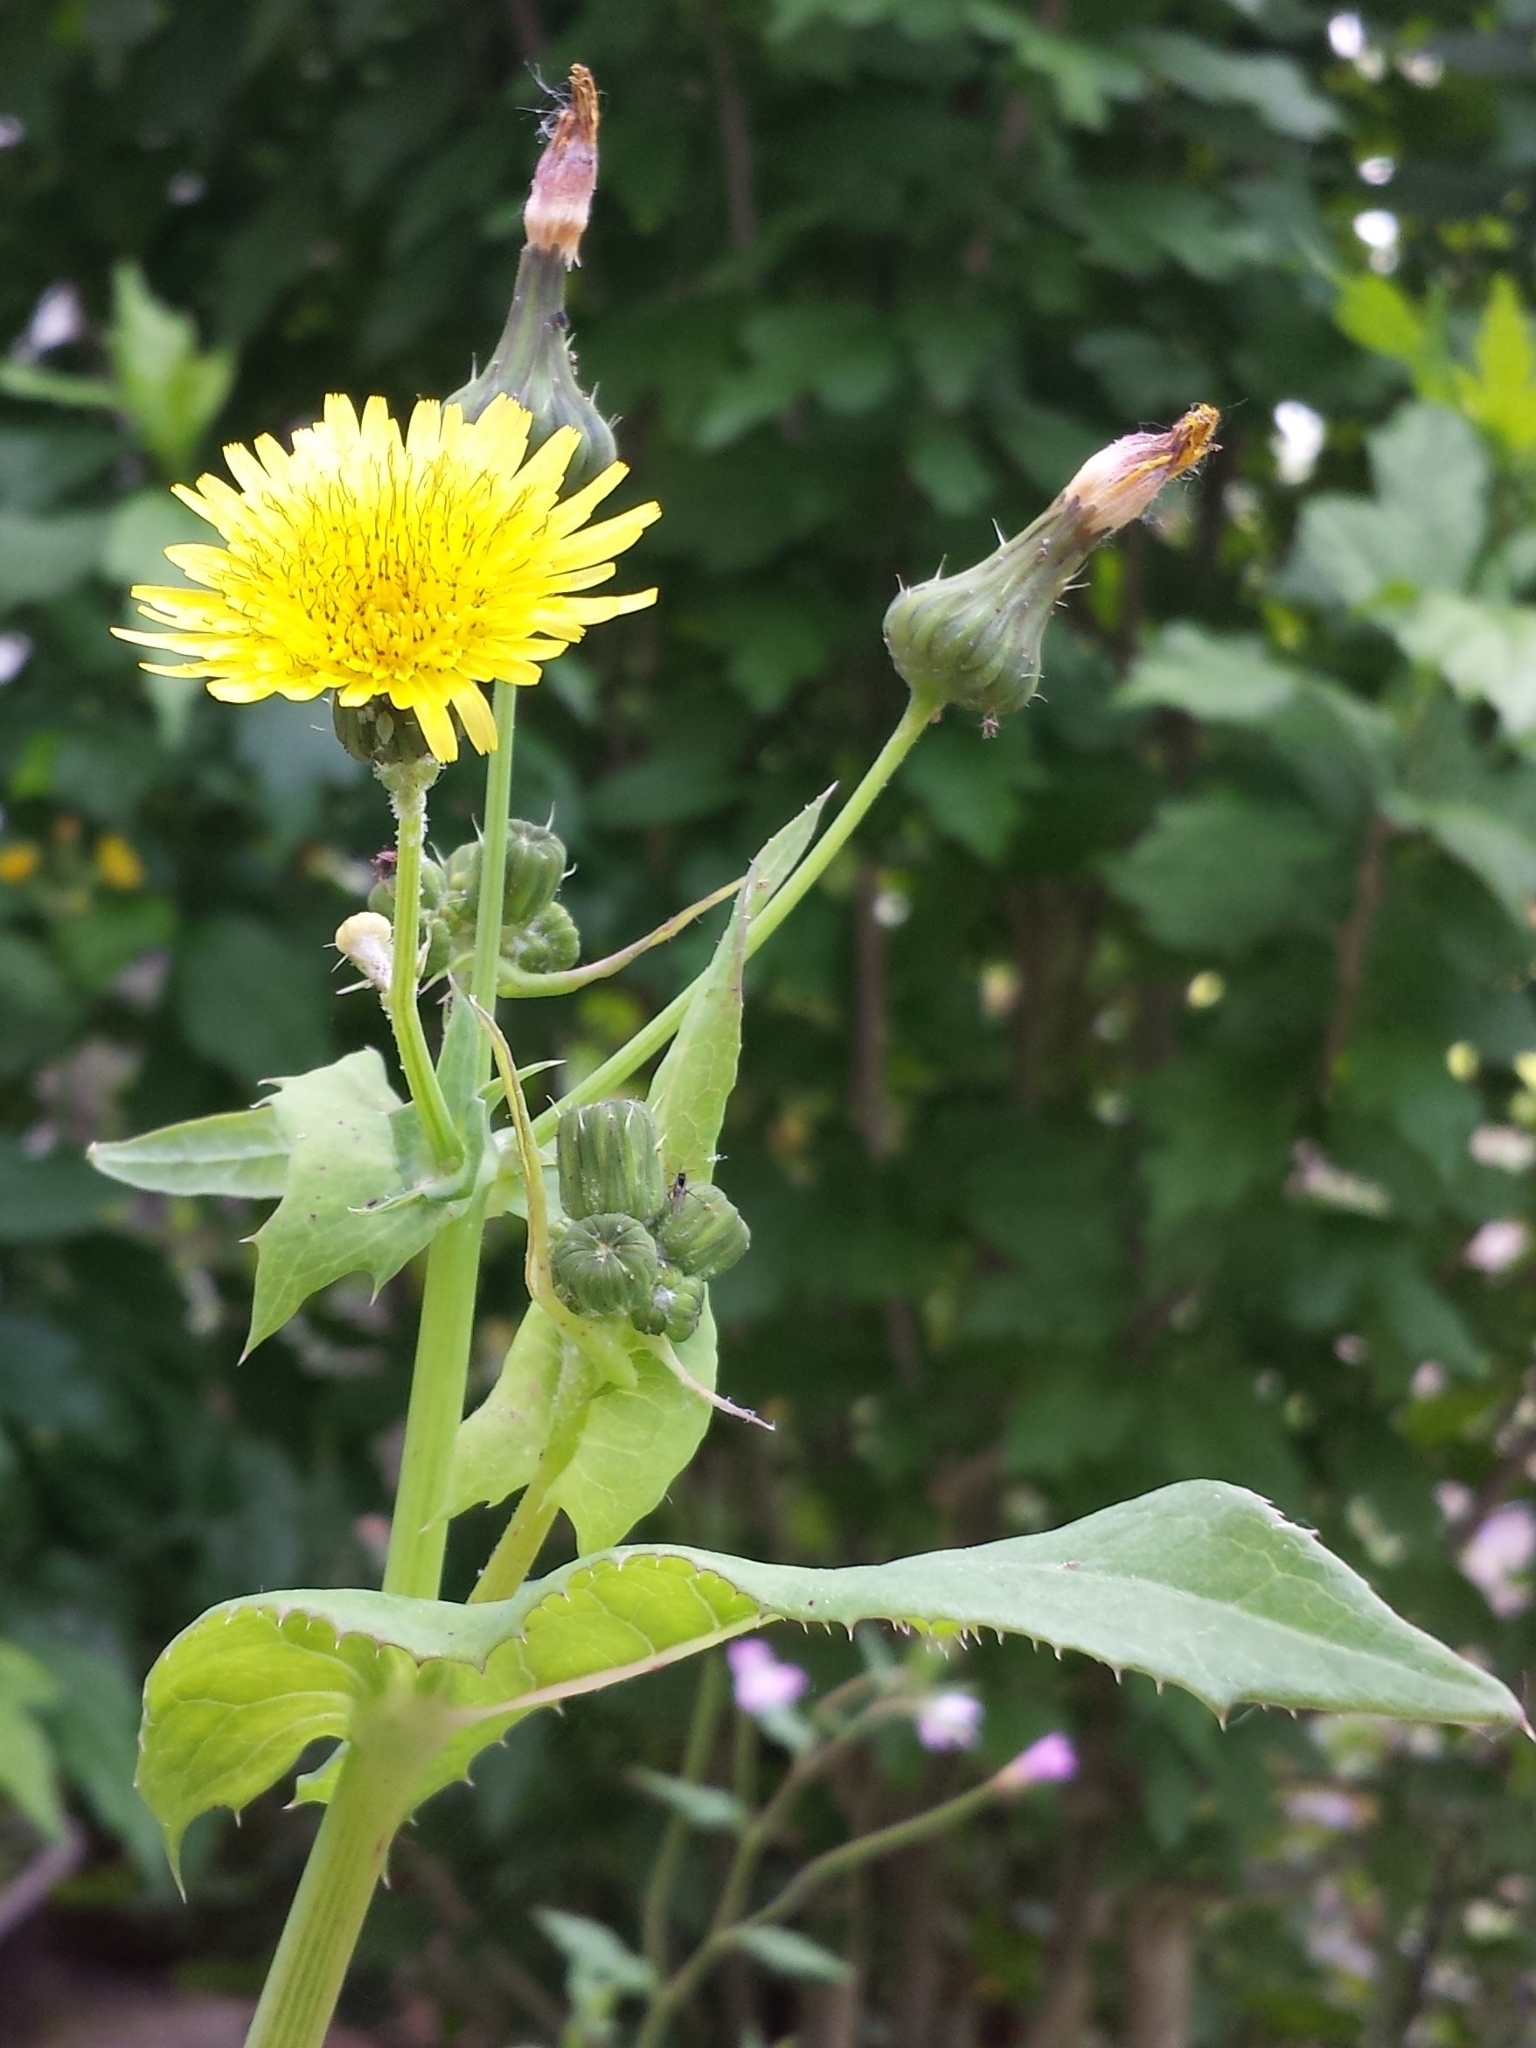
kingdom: Plantae
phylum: Tracheophyta
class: Magnoliopsida
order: Asterales
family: Asteraceae
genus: Sonchus
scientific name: Sonchus oleraceus
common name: Common sowthistle
